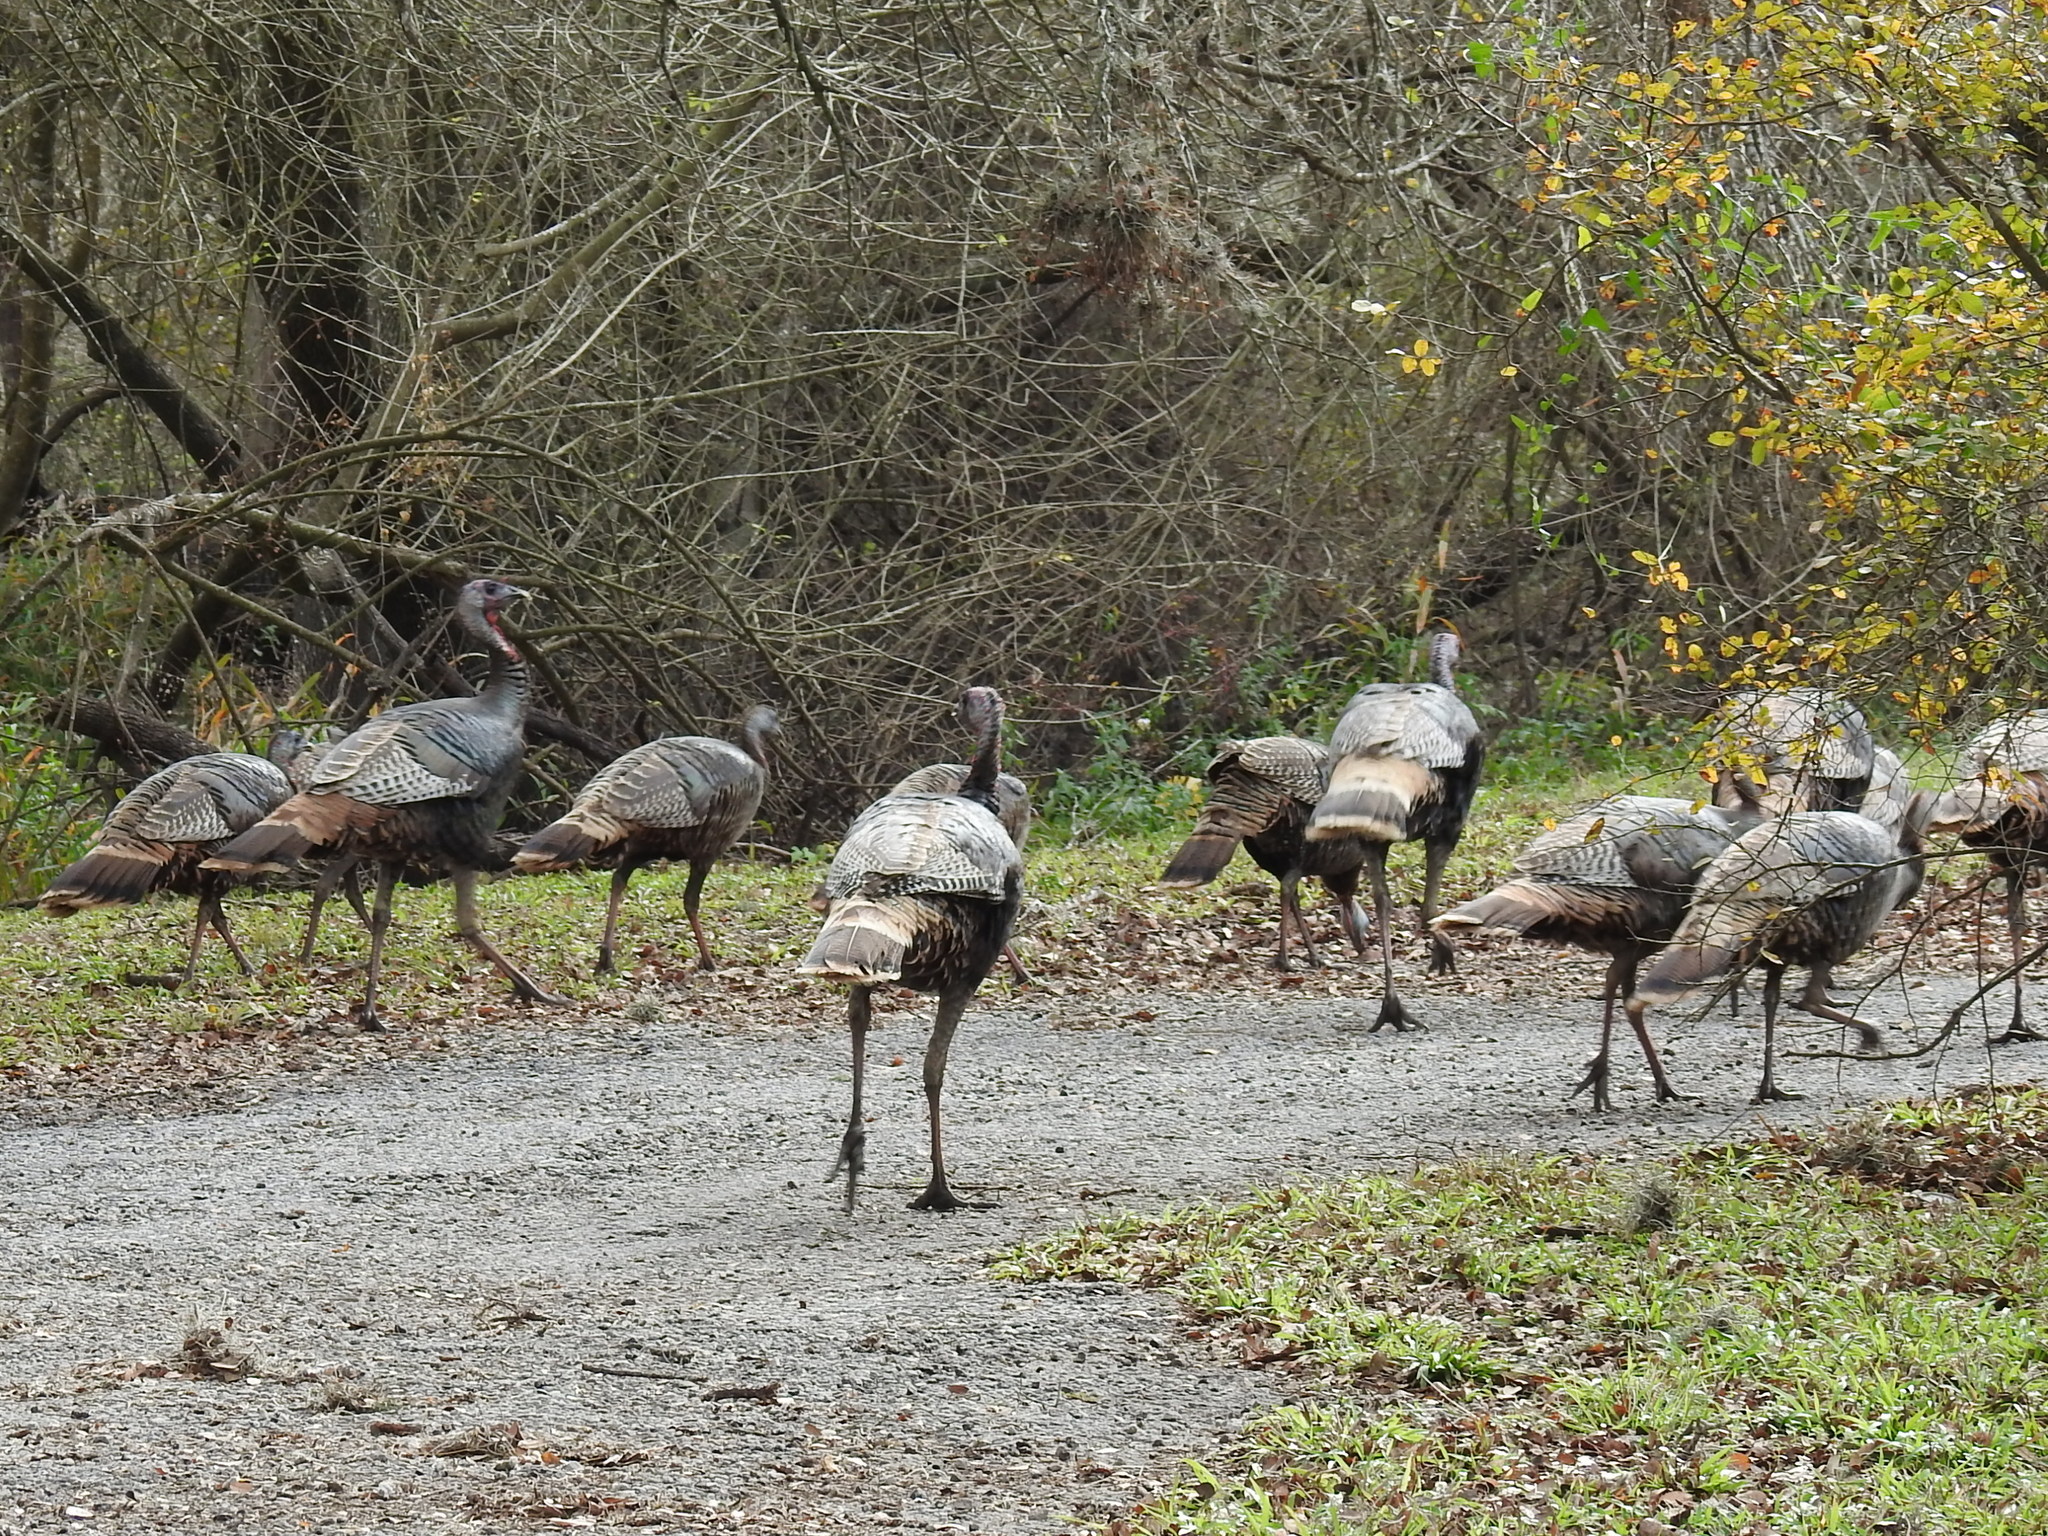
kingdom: Animalia
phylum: Chordata
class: Aves
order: Galliformes
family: Phasianidae
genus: Meleagris
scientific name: Meleagris gallopavo
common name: Wild turkey
